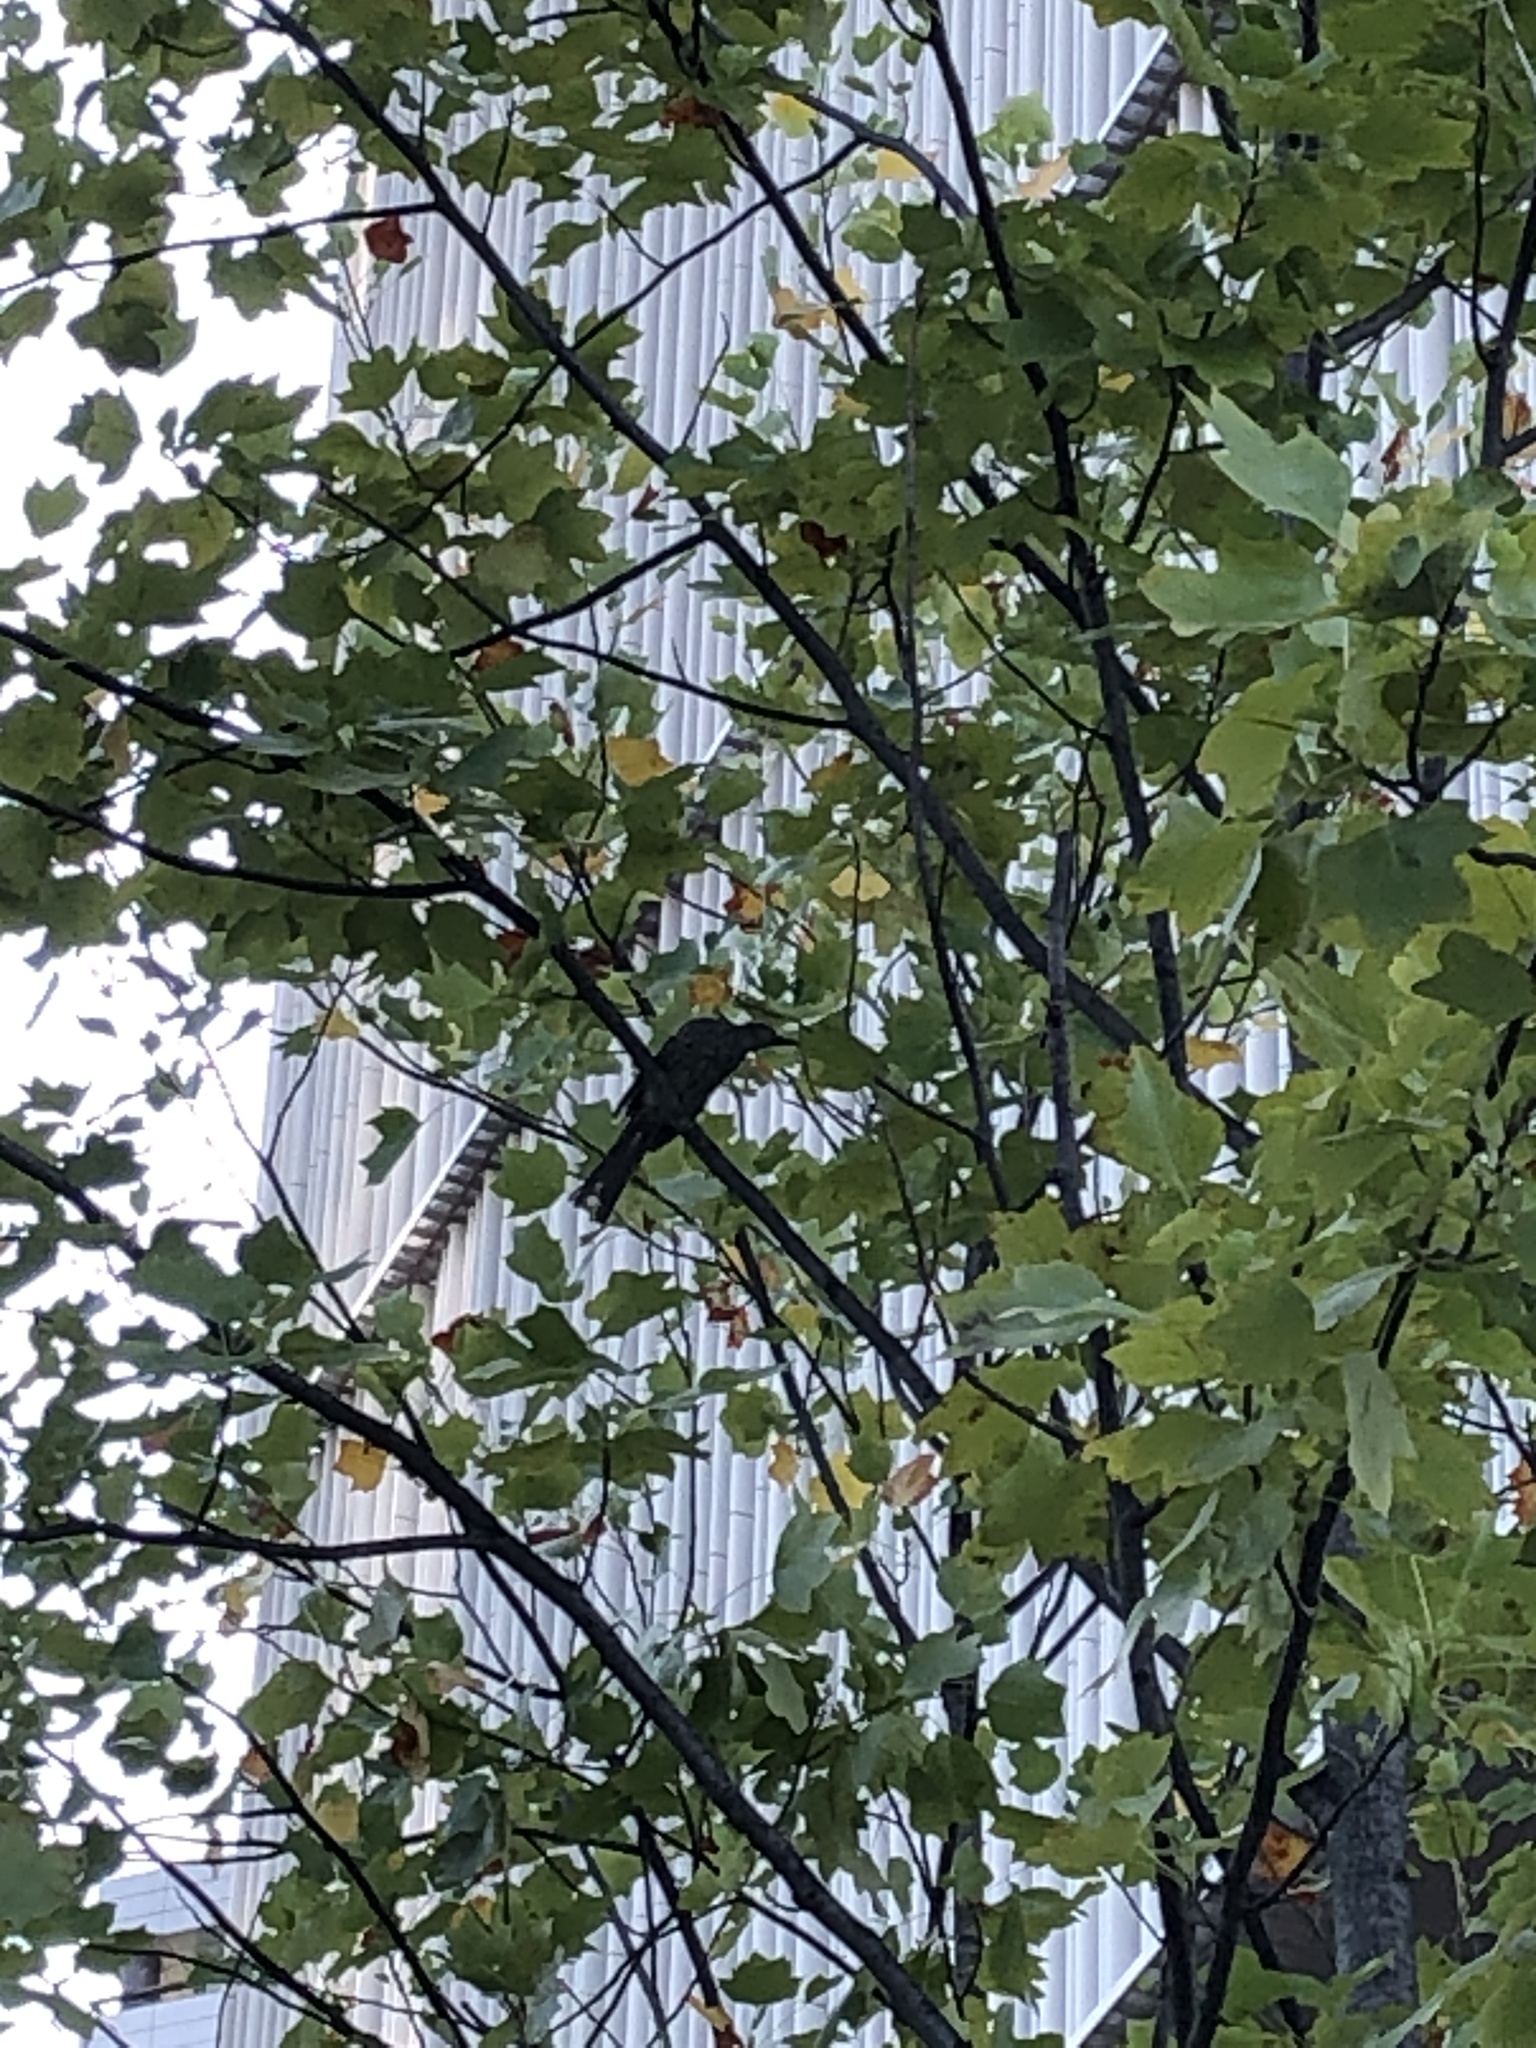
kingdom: Animalia
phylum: Chordata
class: Aves
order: Passeriformes
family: Pycnonotidae
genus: Hypsipetes
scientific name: Hypsipetes amaurotis
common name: Brown-eared bulbul
